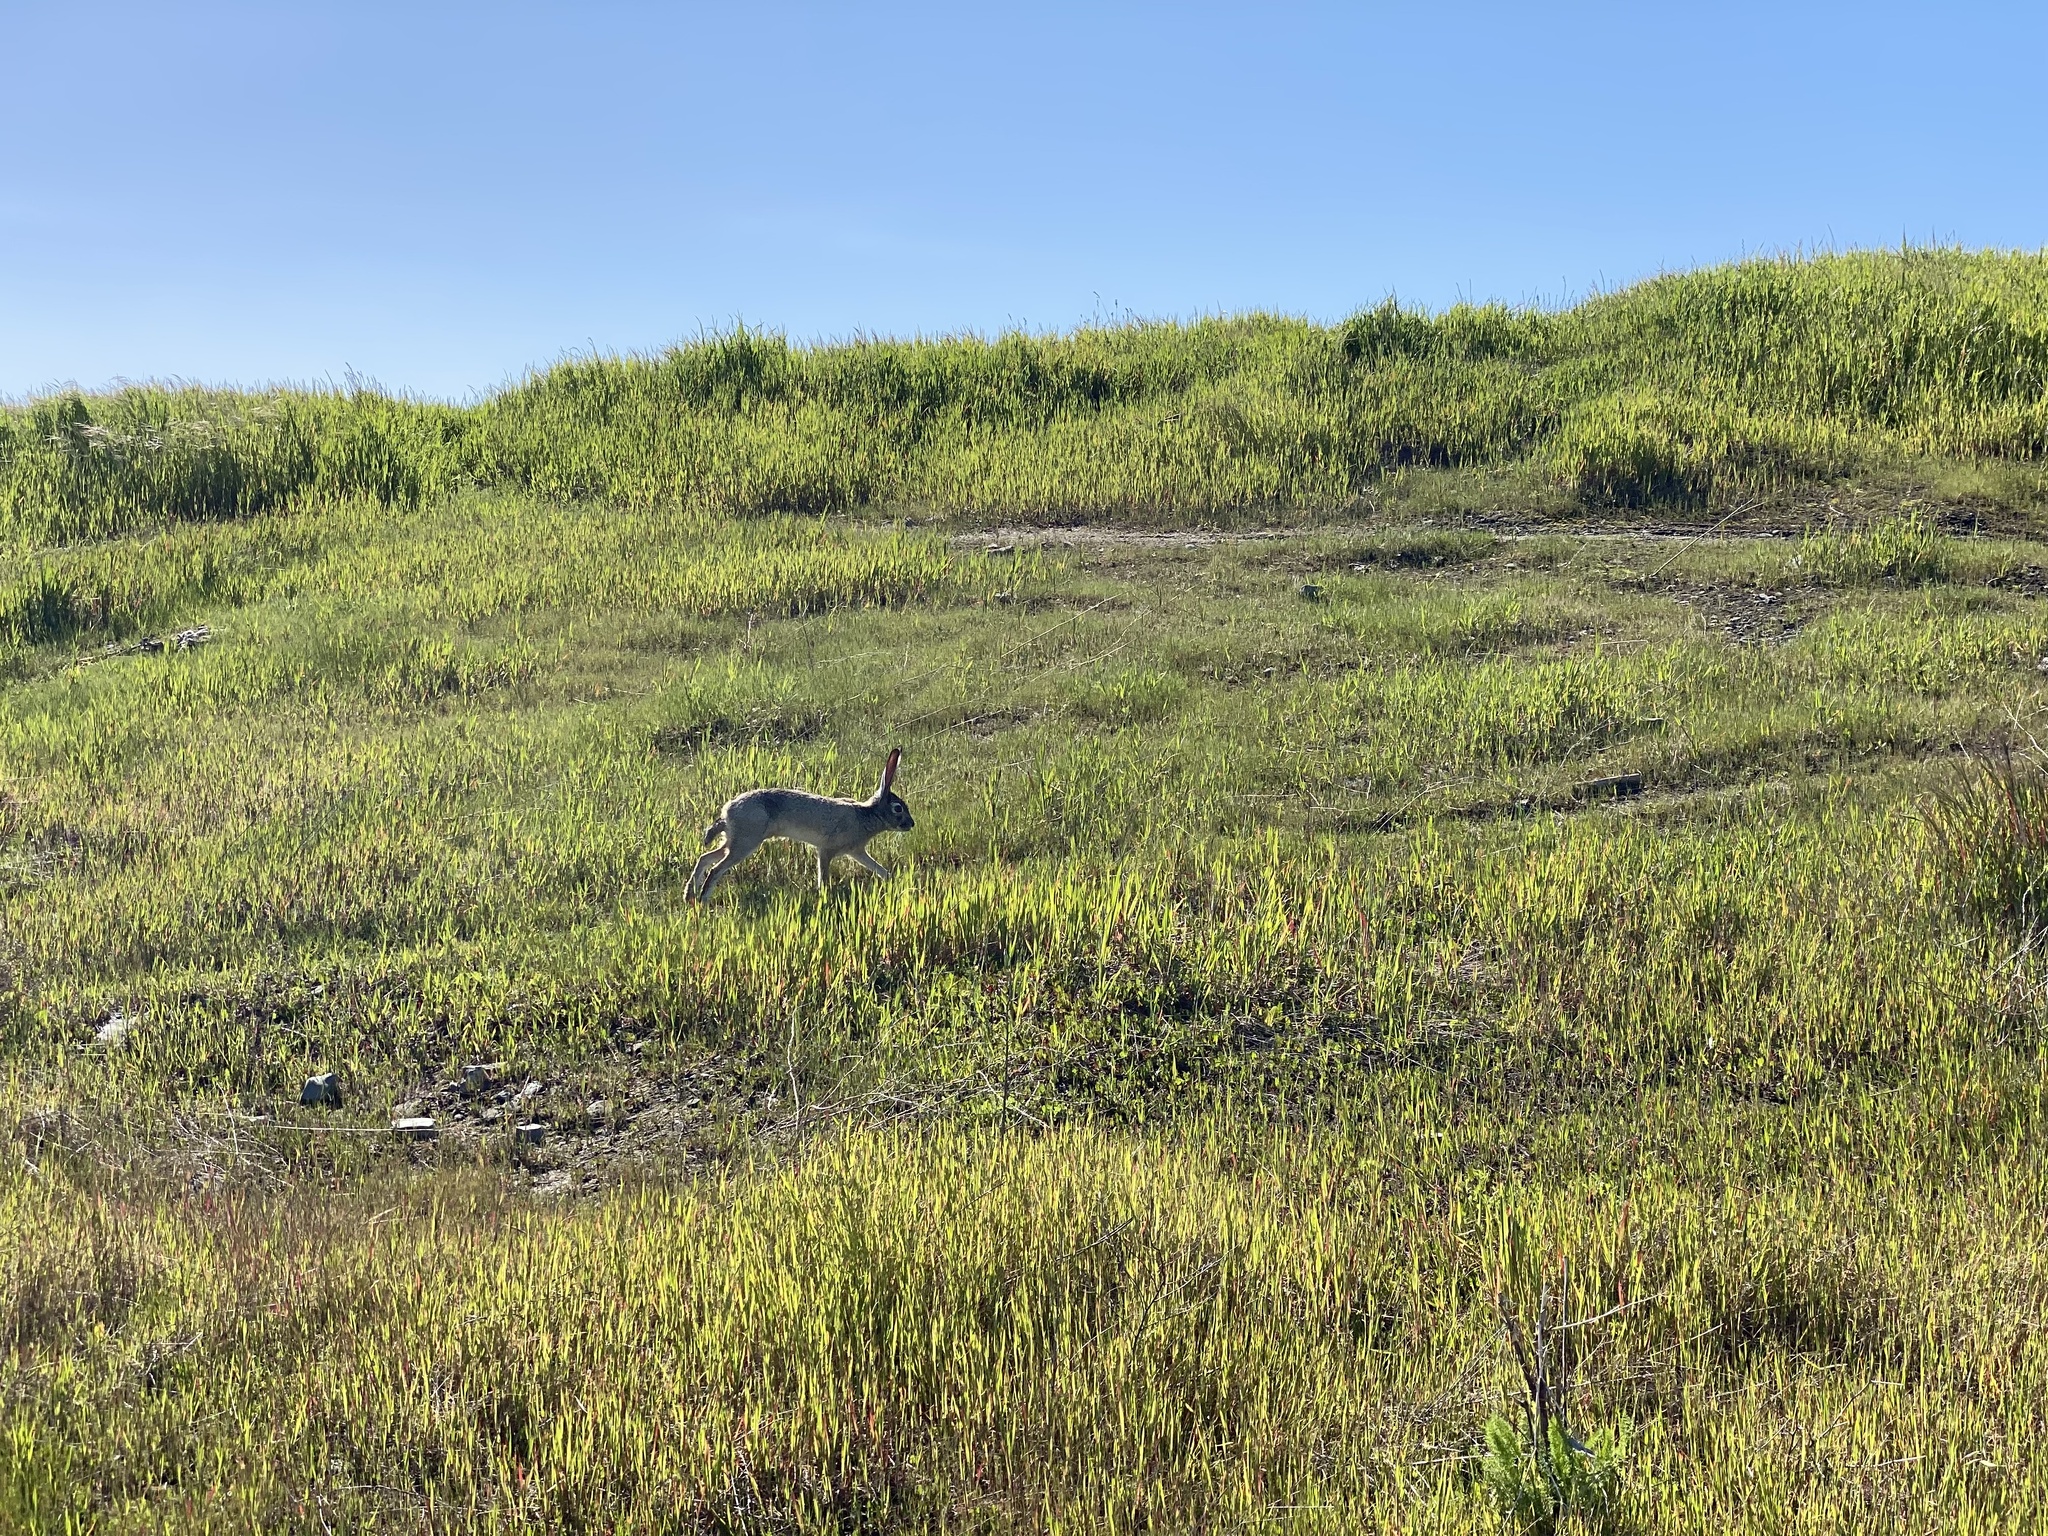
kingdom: Animalia
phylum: Chordata
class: Mammalia
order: Lagomorpha
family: Leporidae
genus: Lepus
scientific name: Lepus californicus
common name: Black-tailed jackrabbit
